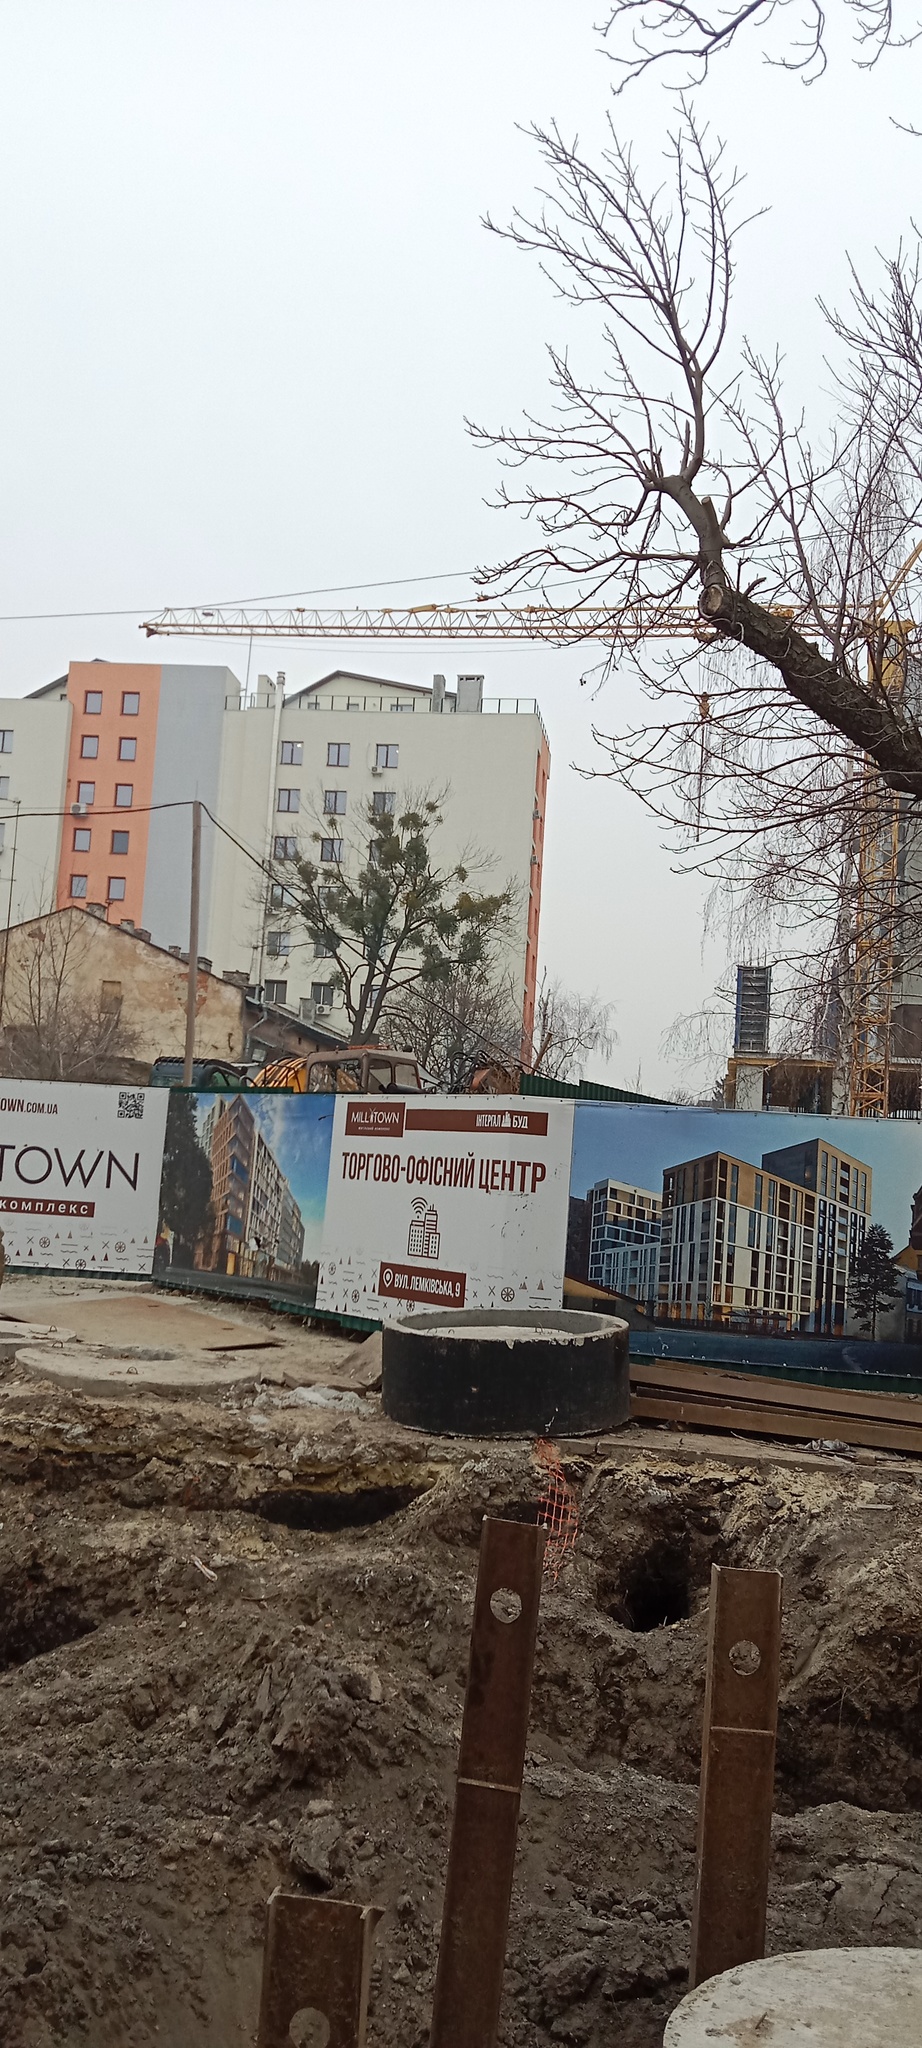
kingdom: Plantae
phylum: Tracheophyta
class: Magnoliopsida
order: Santalales
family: Viscaceae
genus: Viscum
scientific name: Viscum album
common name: Mistletoe
